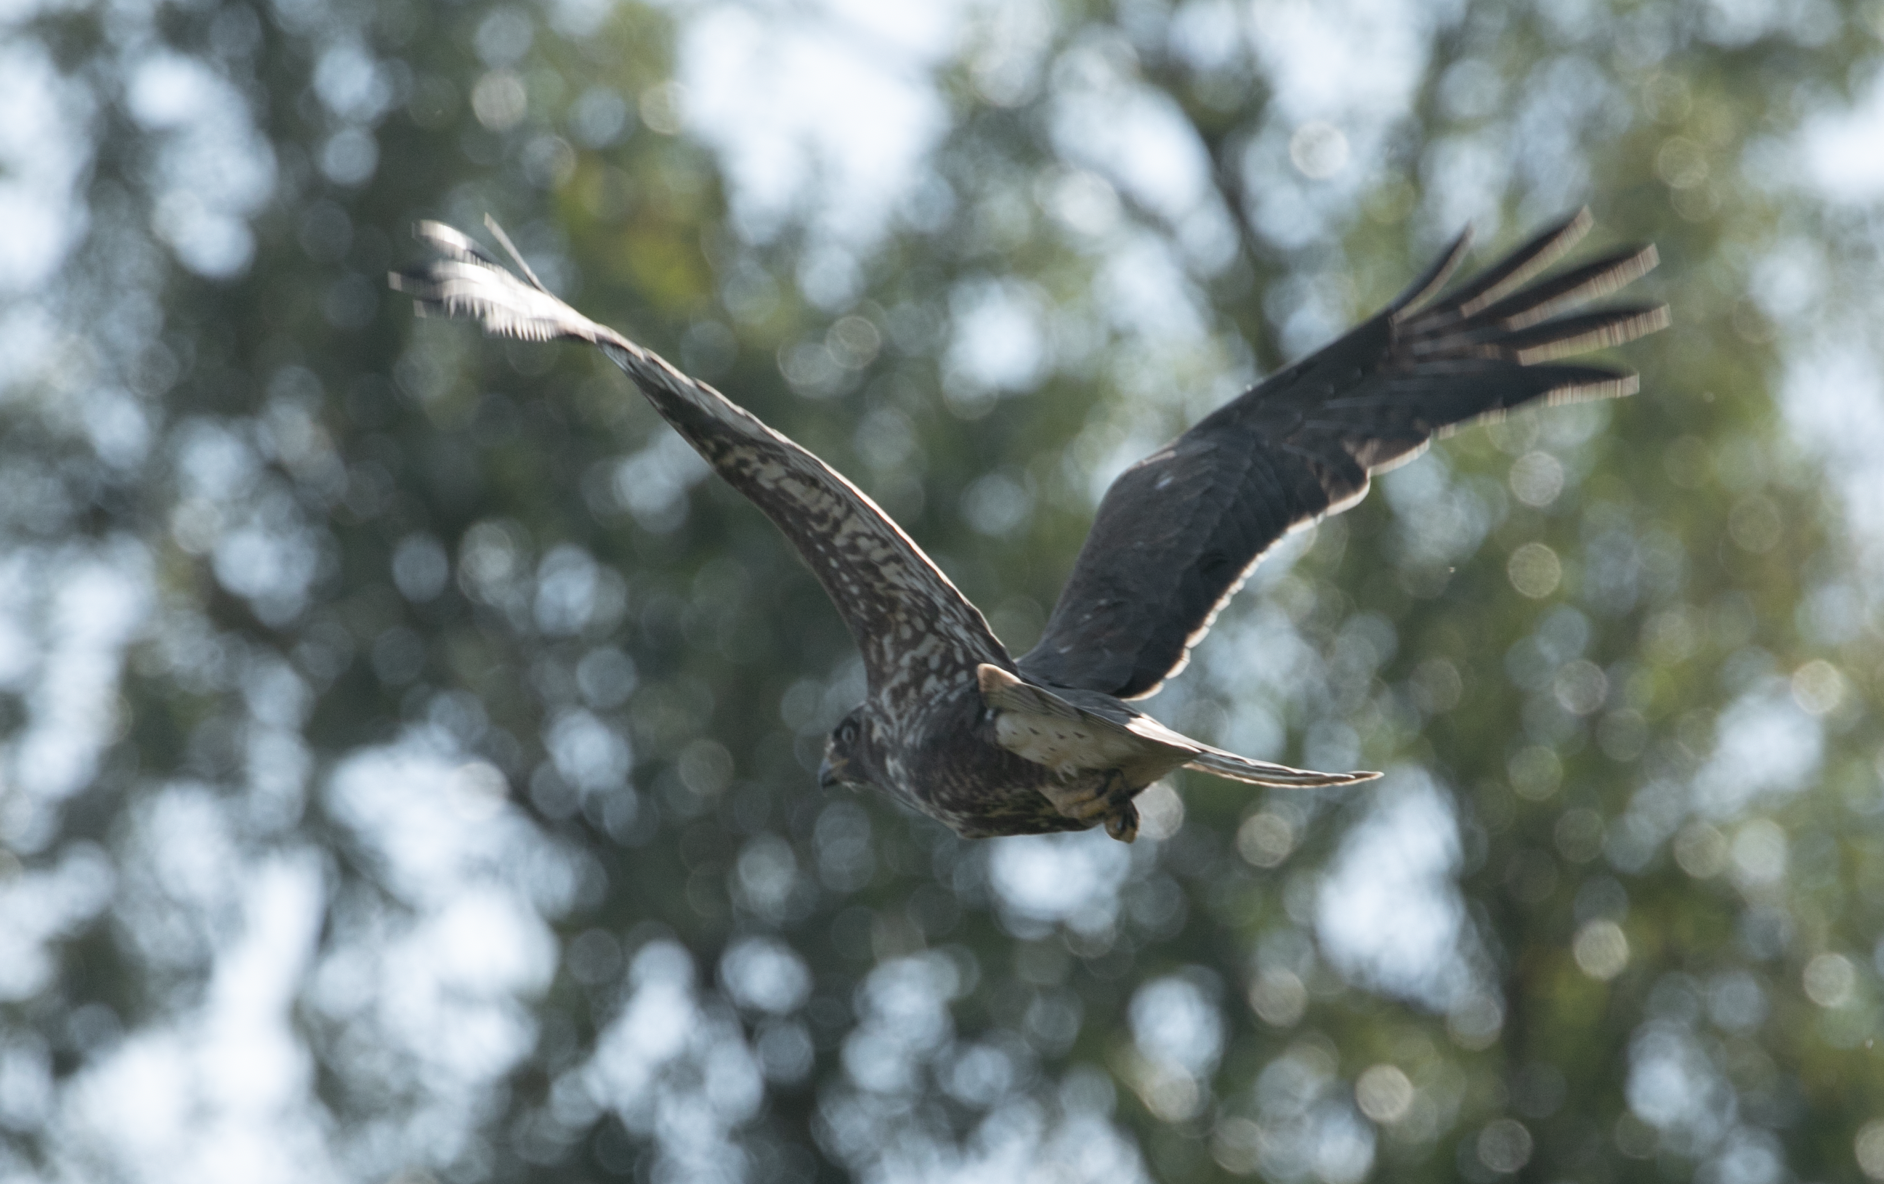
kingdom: Animalia
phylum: Chordata
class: Aves
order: Accipitriformes
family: Accipitridae
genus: Buteo
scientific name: Buteo buteo
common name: Common buzzard
